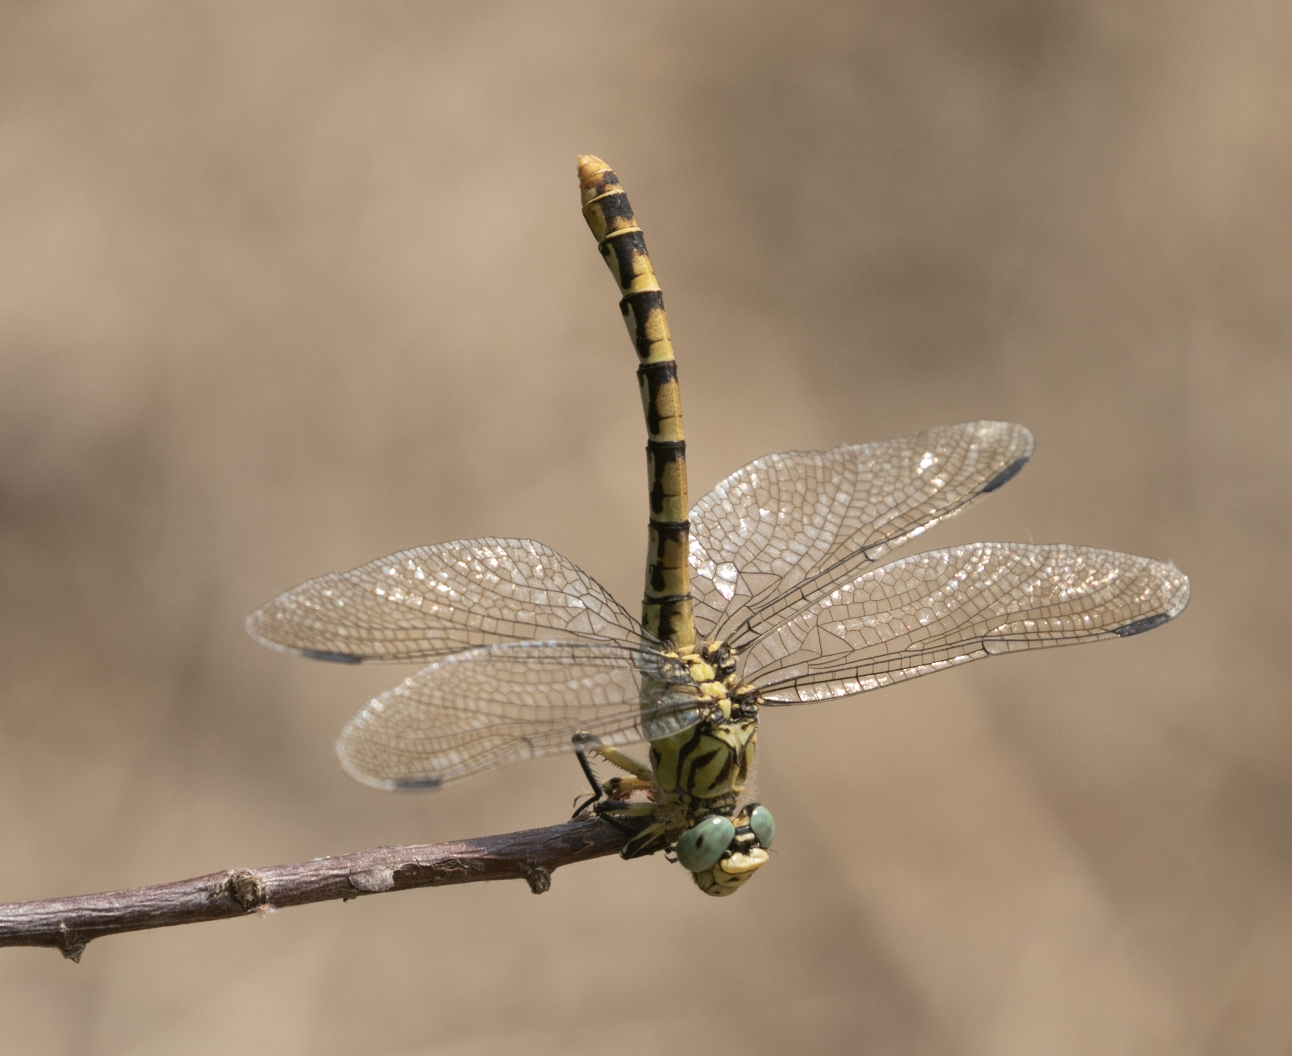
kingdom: Animalia
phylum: Arthropoda
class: Insecta
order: Odonata
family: Gomphidae
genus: Onychogomphus
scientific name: Onychogomphus forcipatus
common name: Small pincertail
